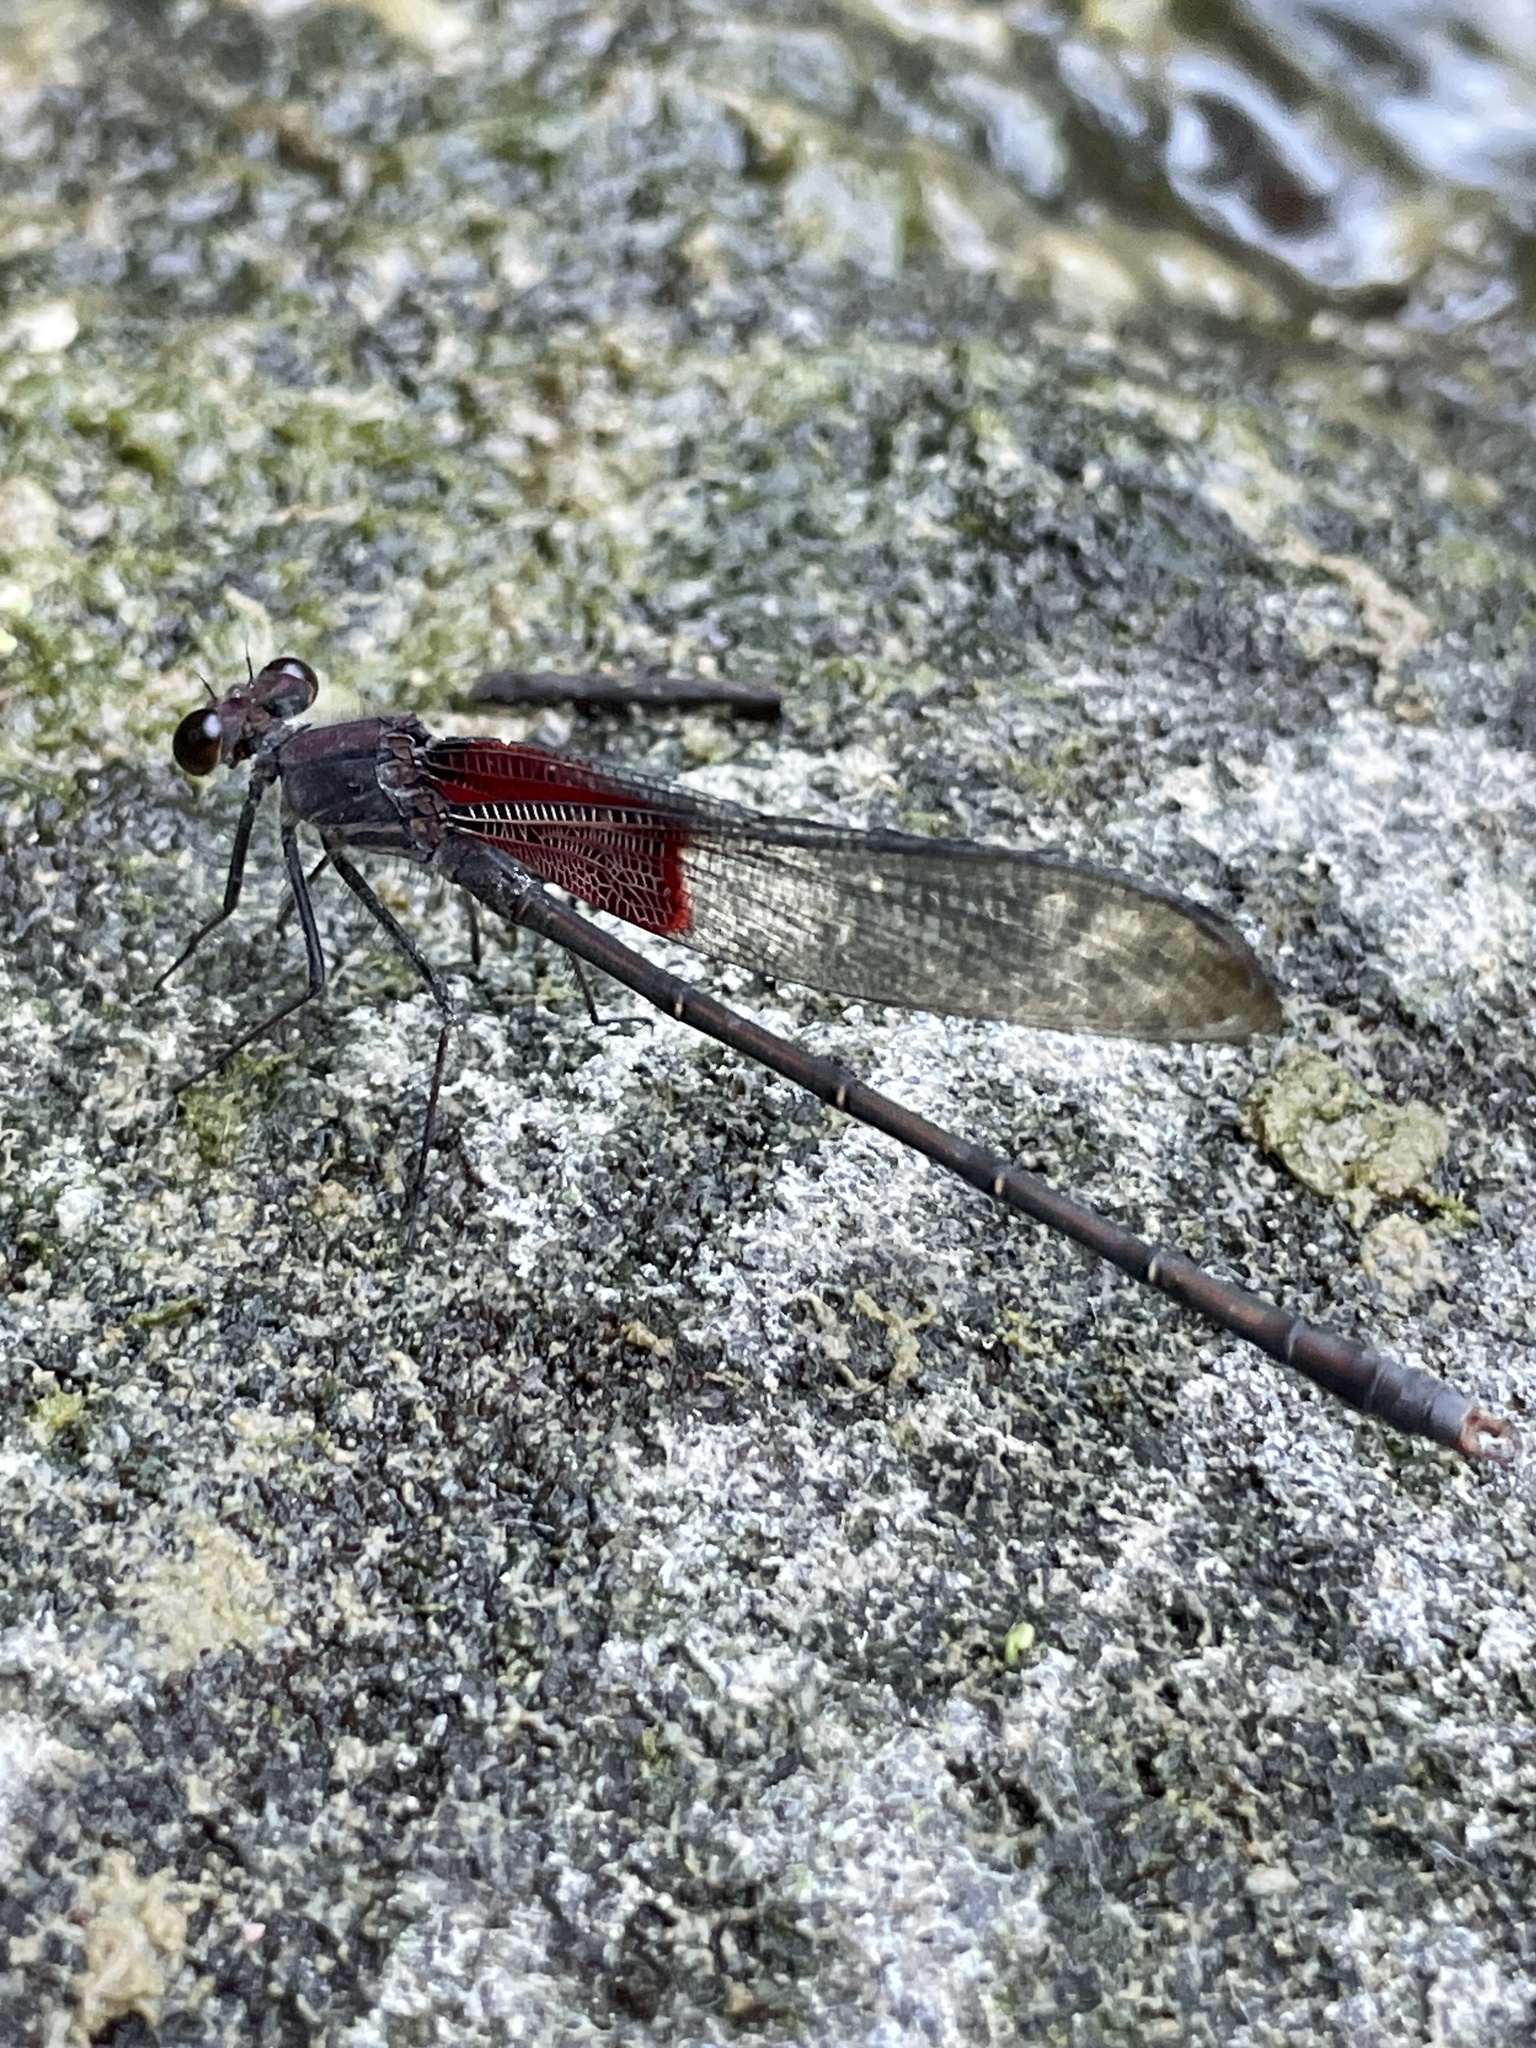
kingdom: Animalia
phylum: Arthropoda
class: Insecta
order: Odonata
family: Calopterygidae
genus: Hetaerina
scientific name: Hetaerina americana
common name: American rubyspot
